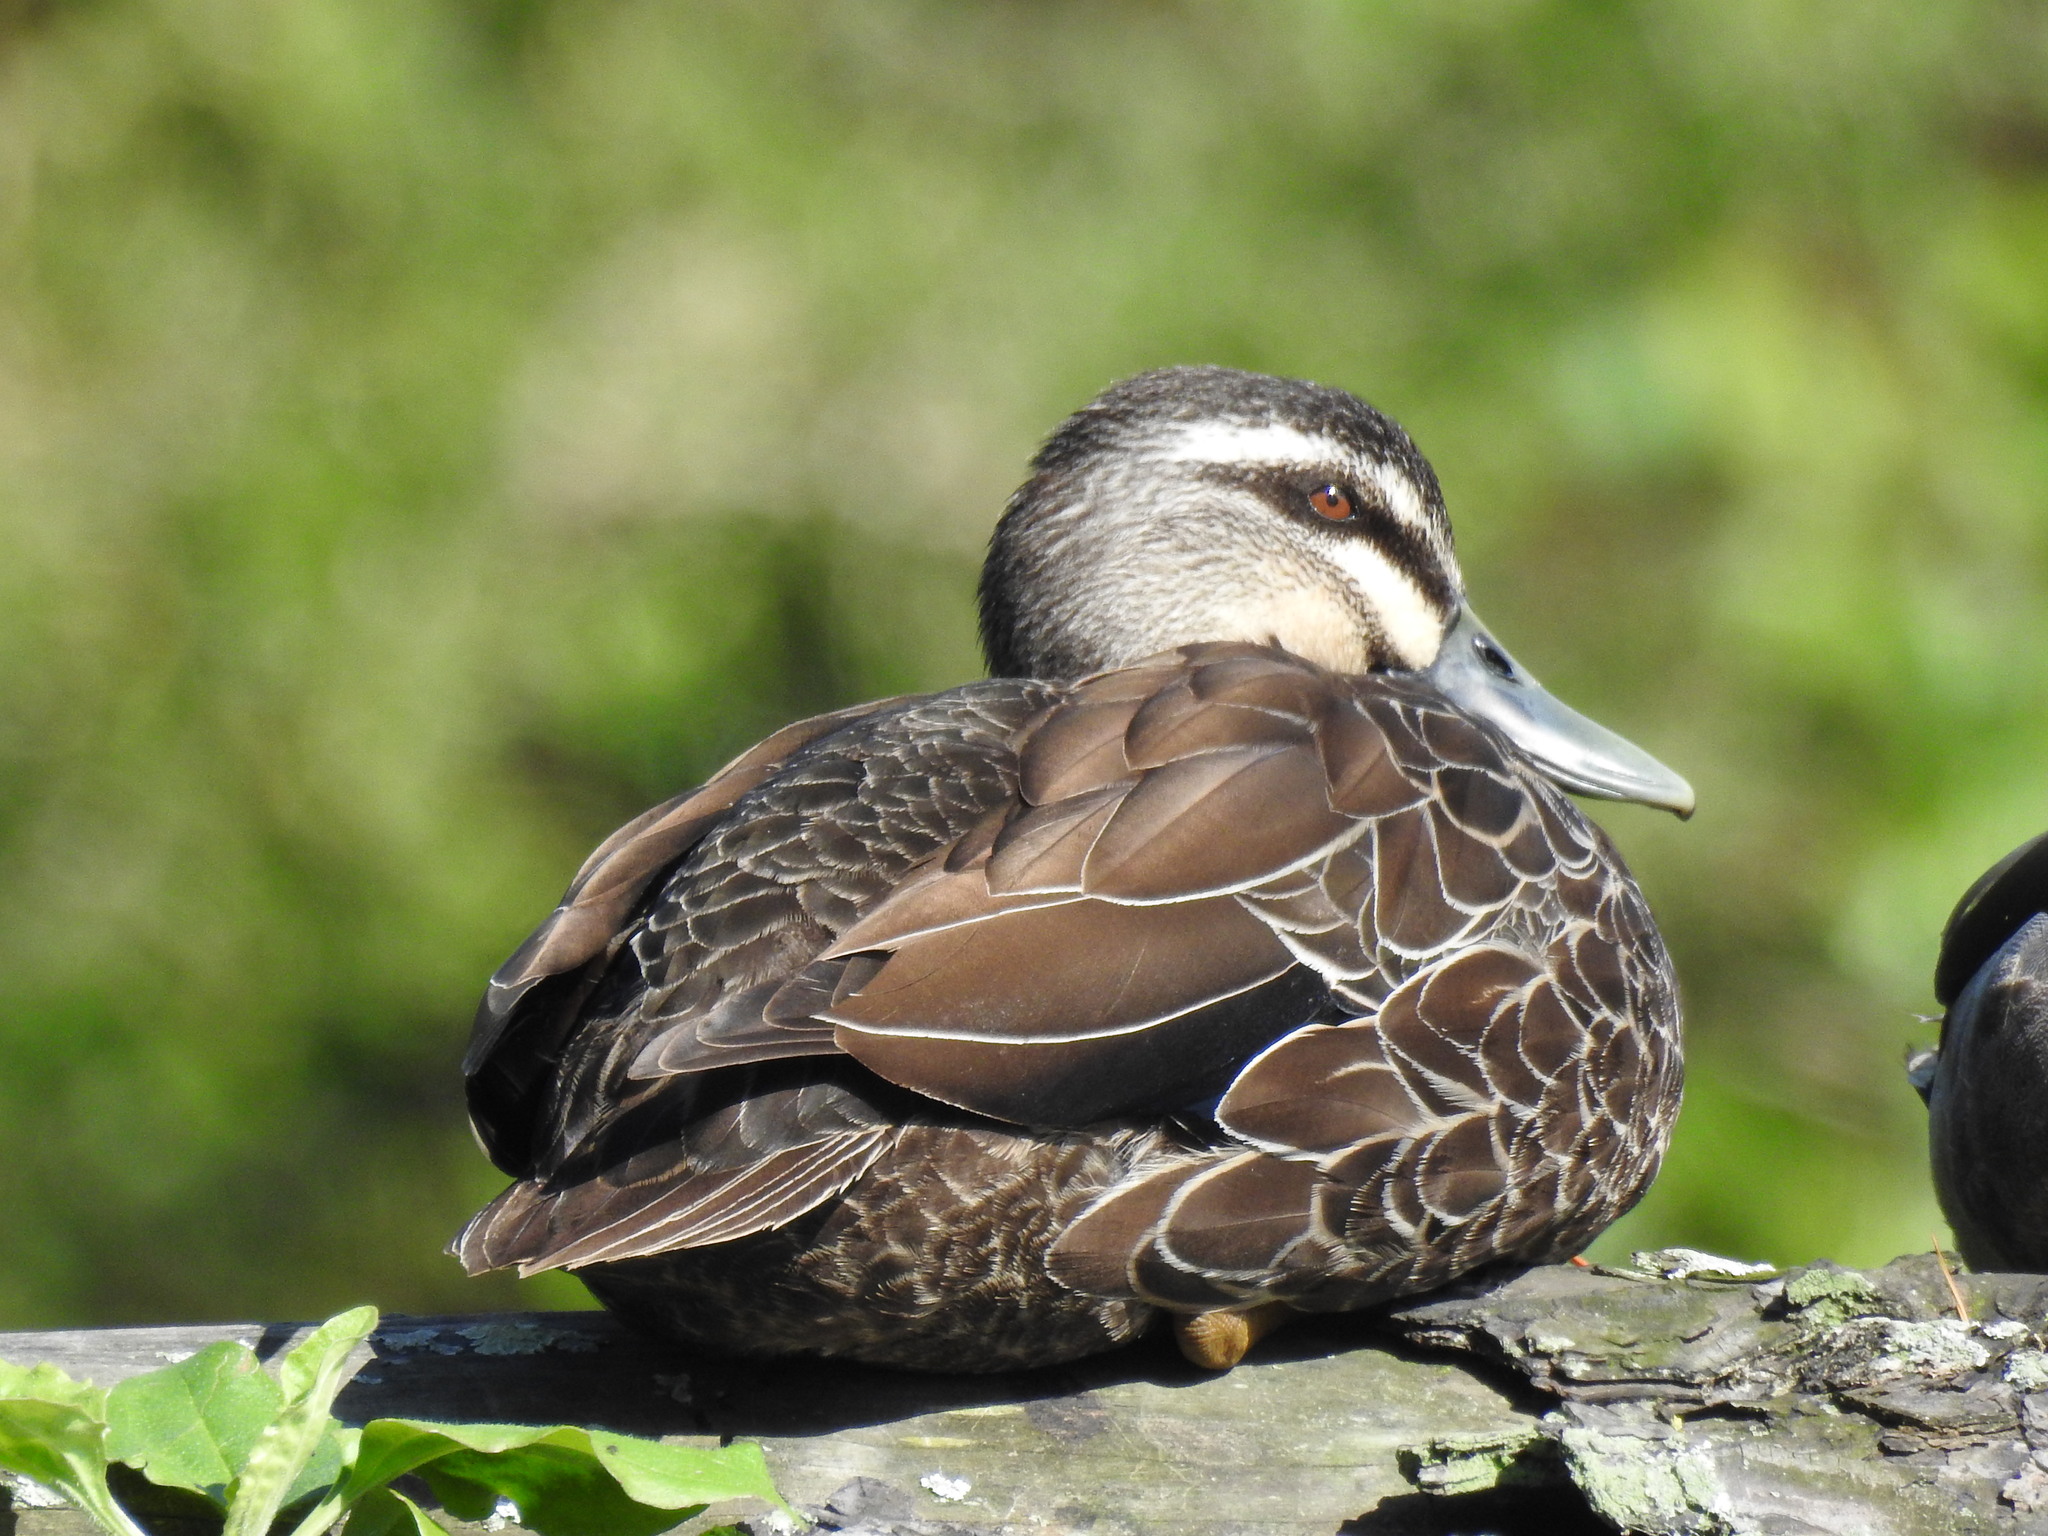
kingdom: Animalia
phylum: Chordata
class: Aves
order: Anseriformes
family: Anatidae
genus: Anas
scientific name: Anas
